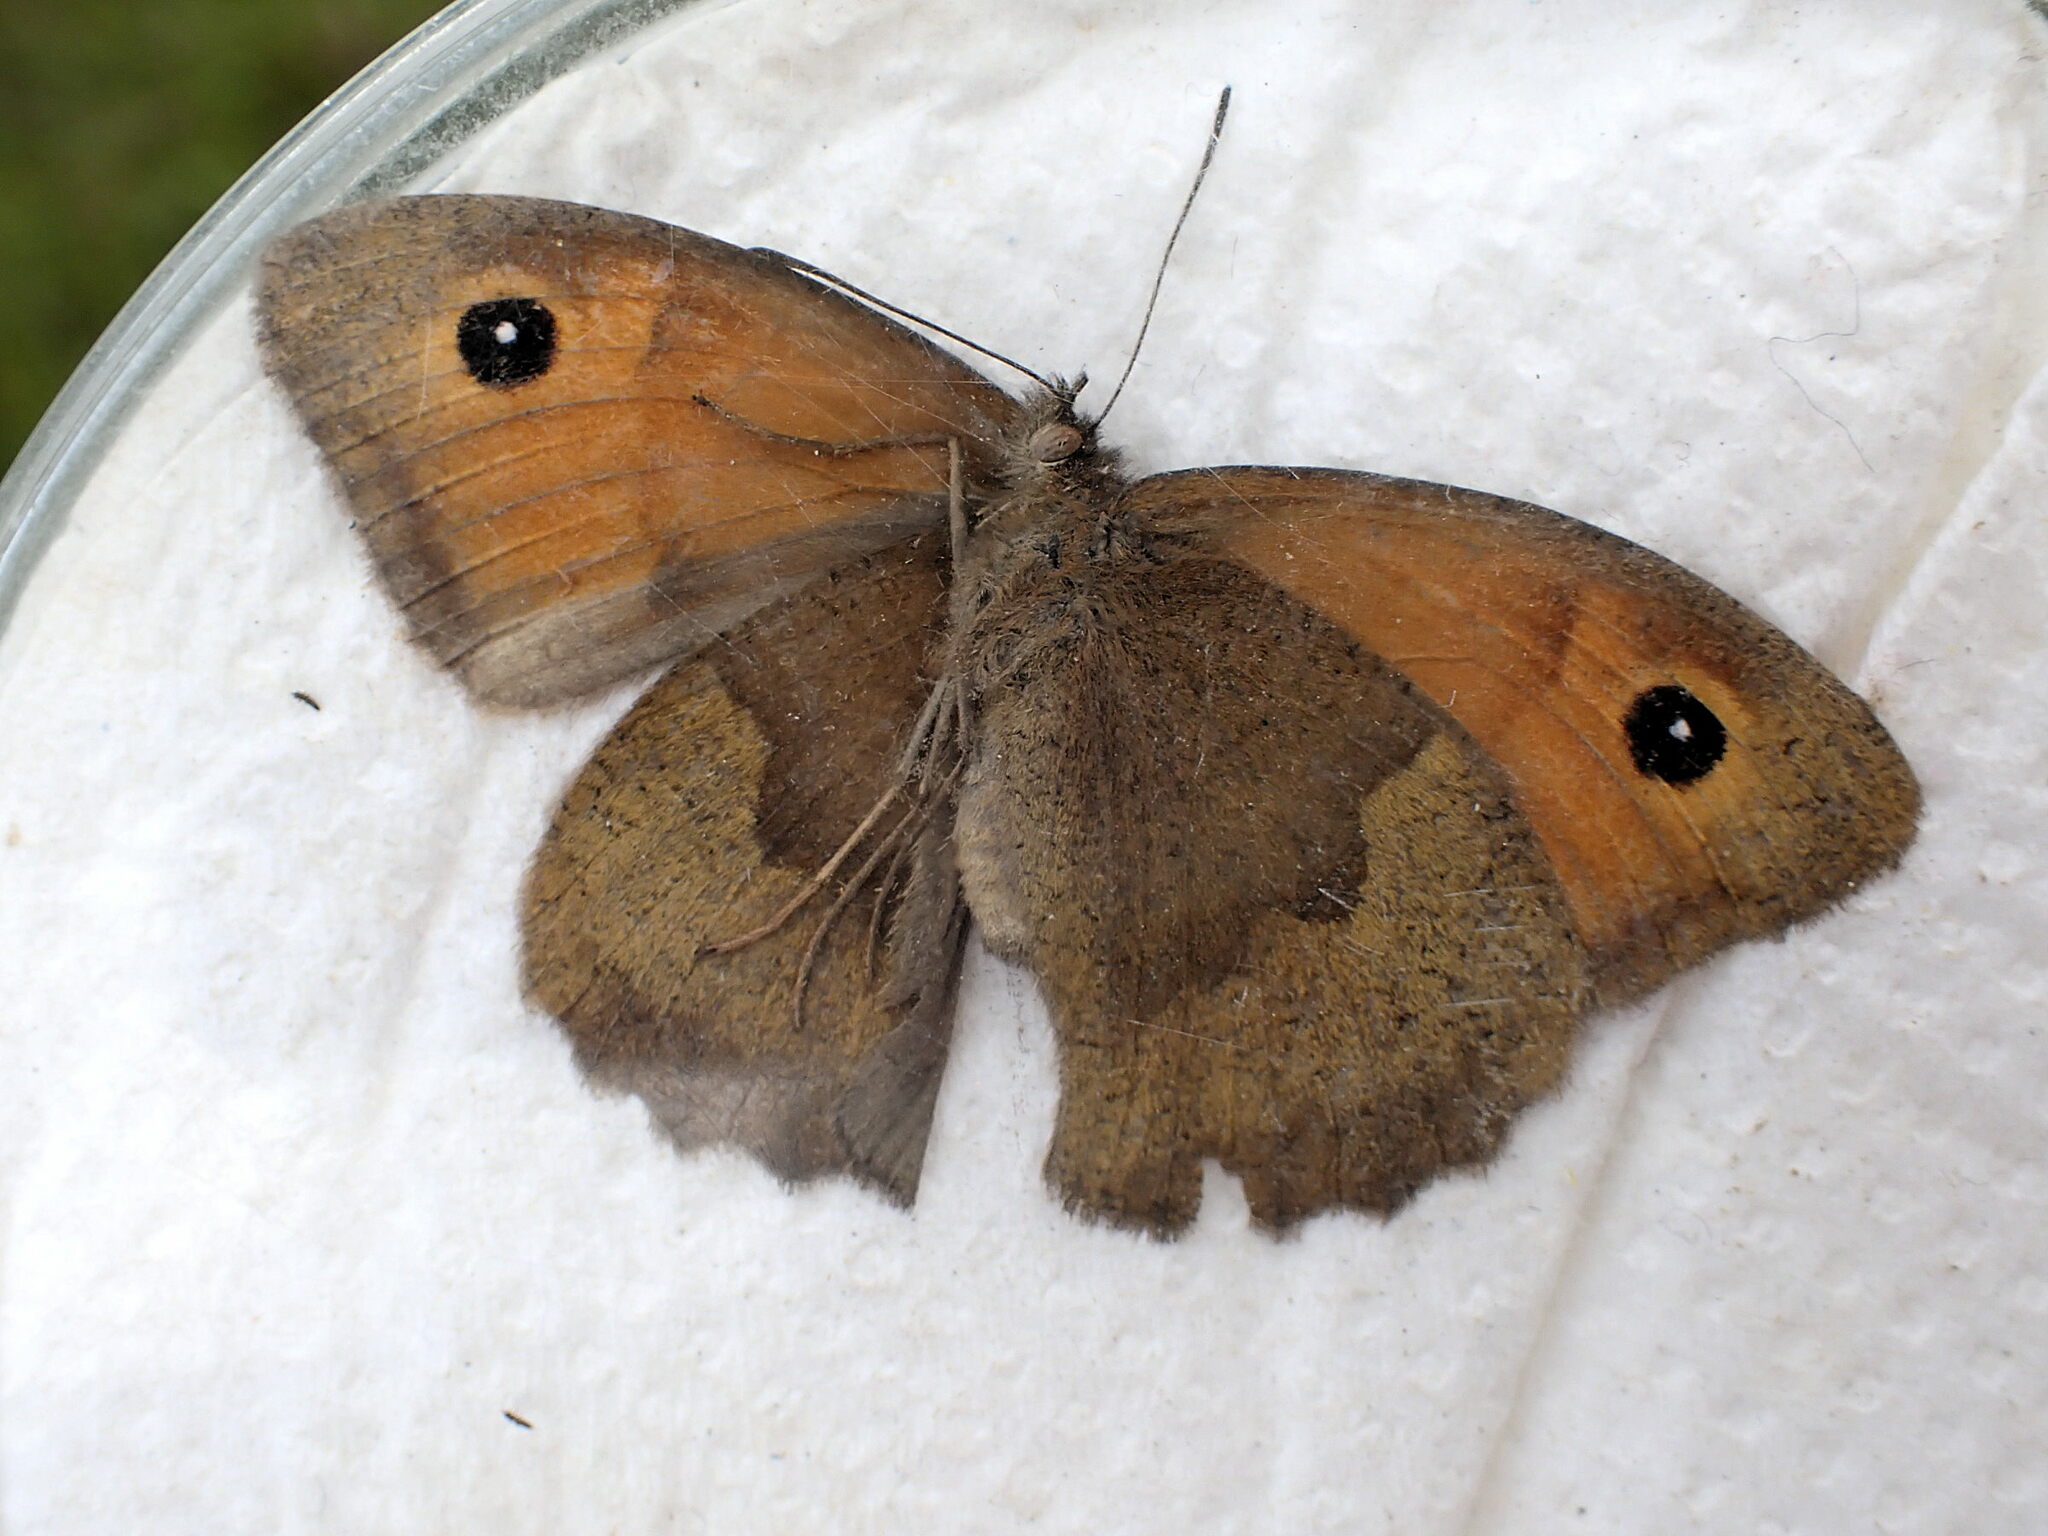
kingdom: Animalia
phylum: Arthropoda
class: Insecta
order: Lepidoptera
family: Nymphalidae
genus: Maniola
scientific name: Maniola jurtina
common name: Meadow brown
